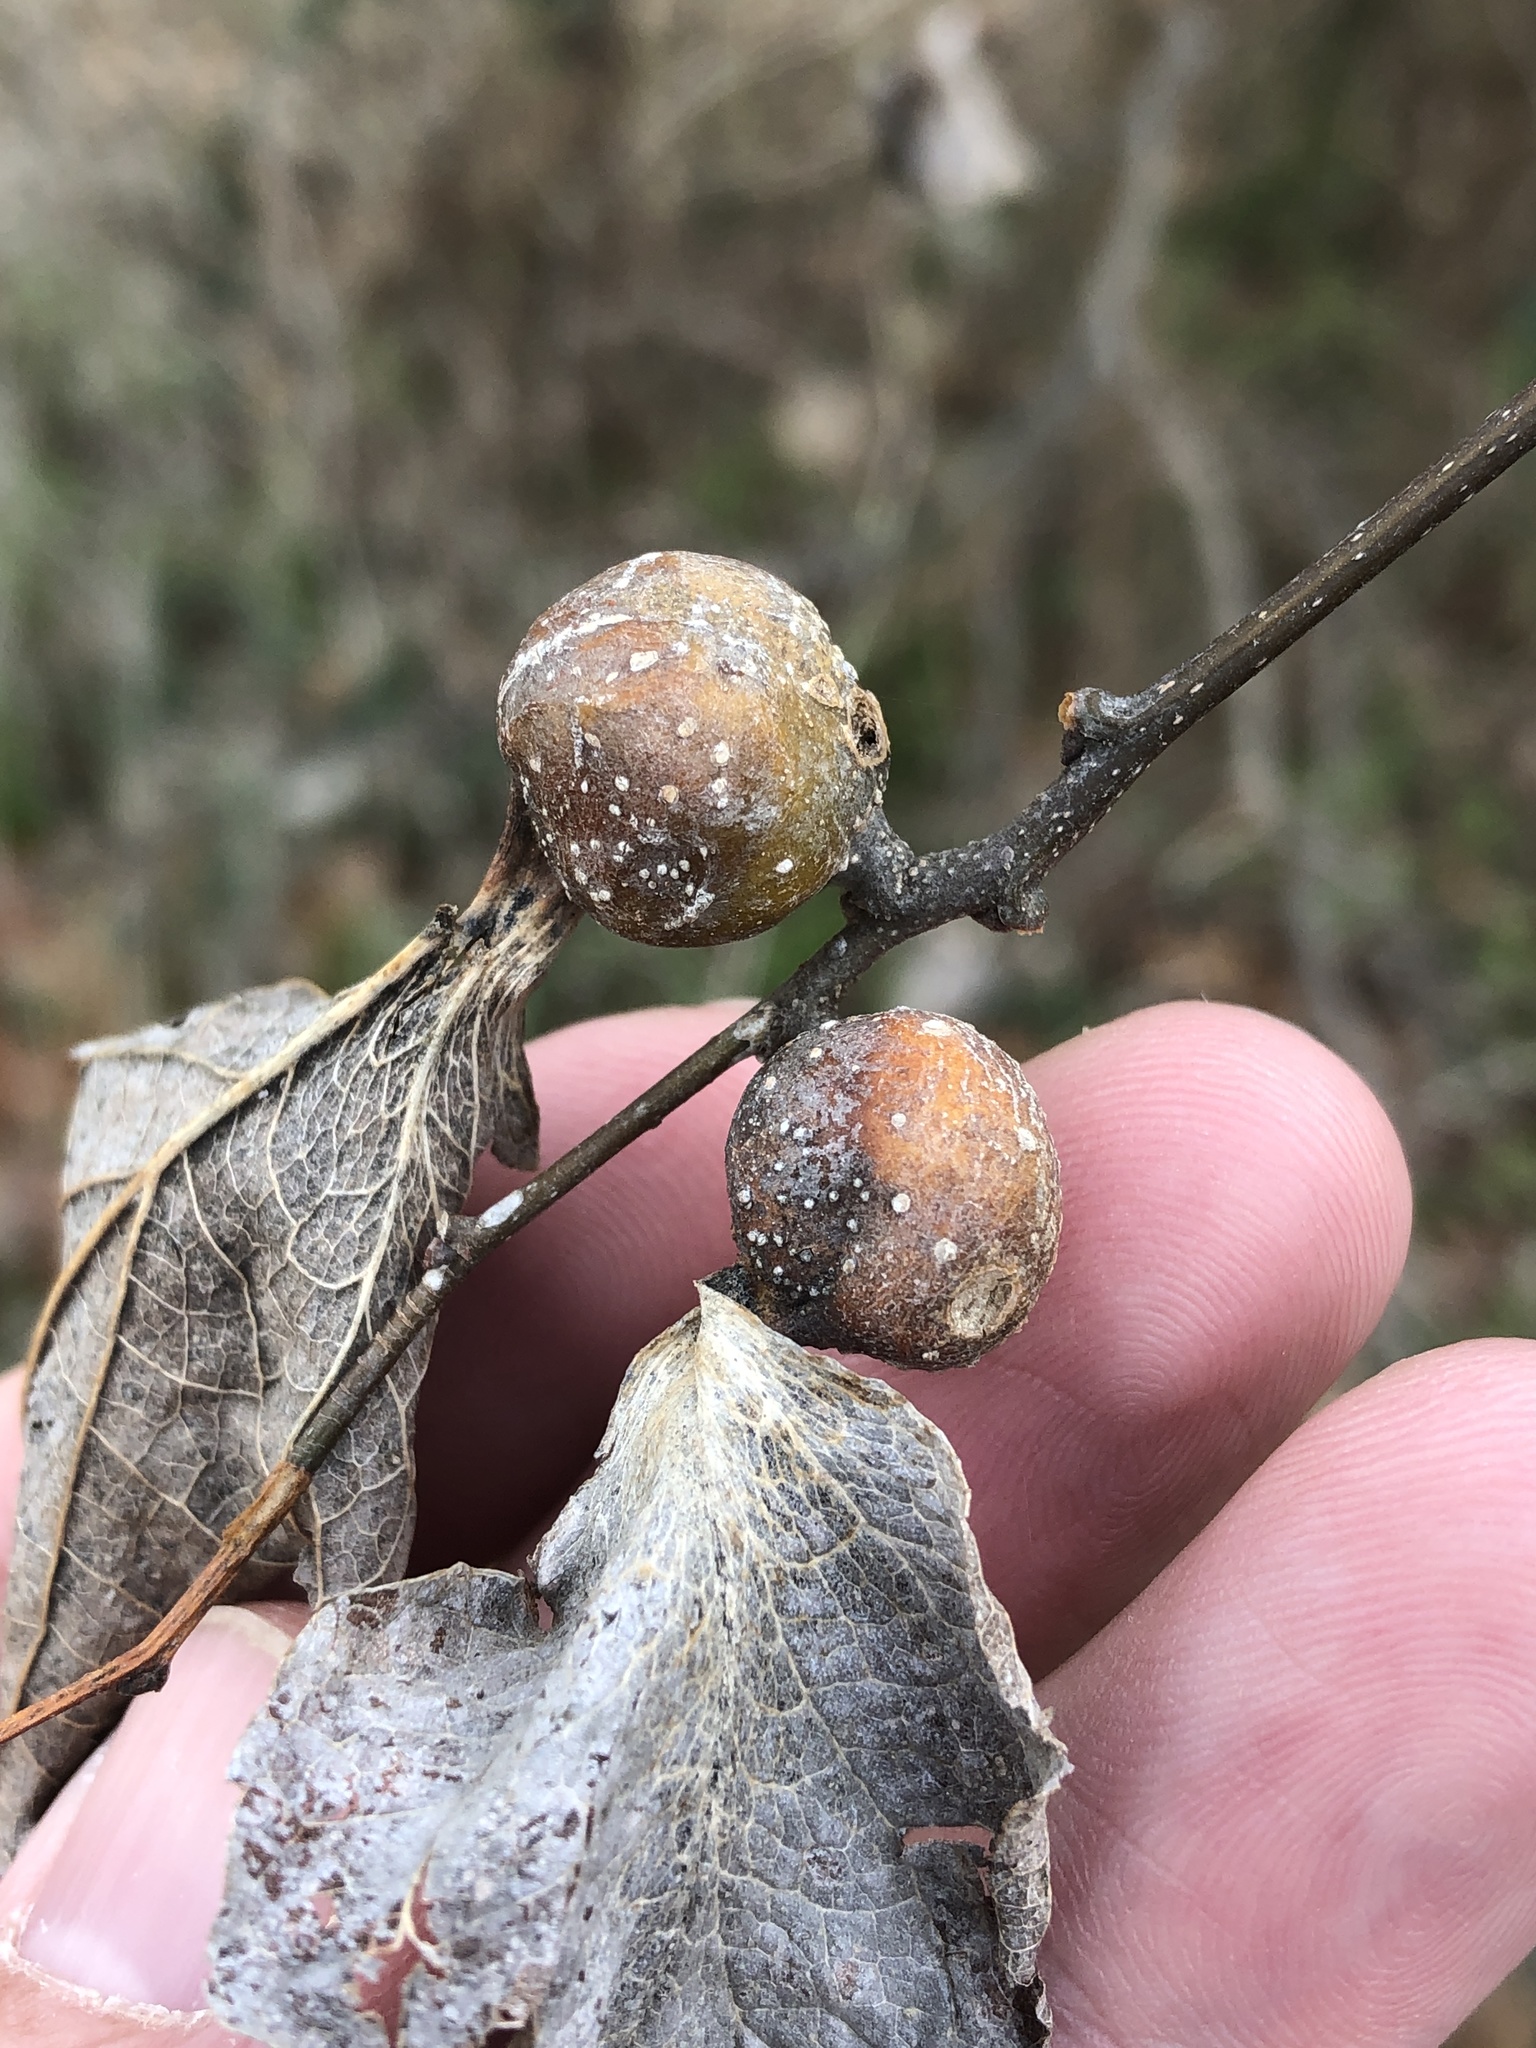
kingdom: Animalia
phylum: Arthropoda
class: Insecta
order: Hemiptera
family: Aphalaridae
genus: Pachypsylla
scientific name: Pachypsylla venusta
